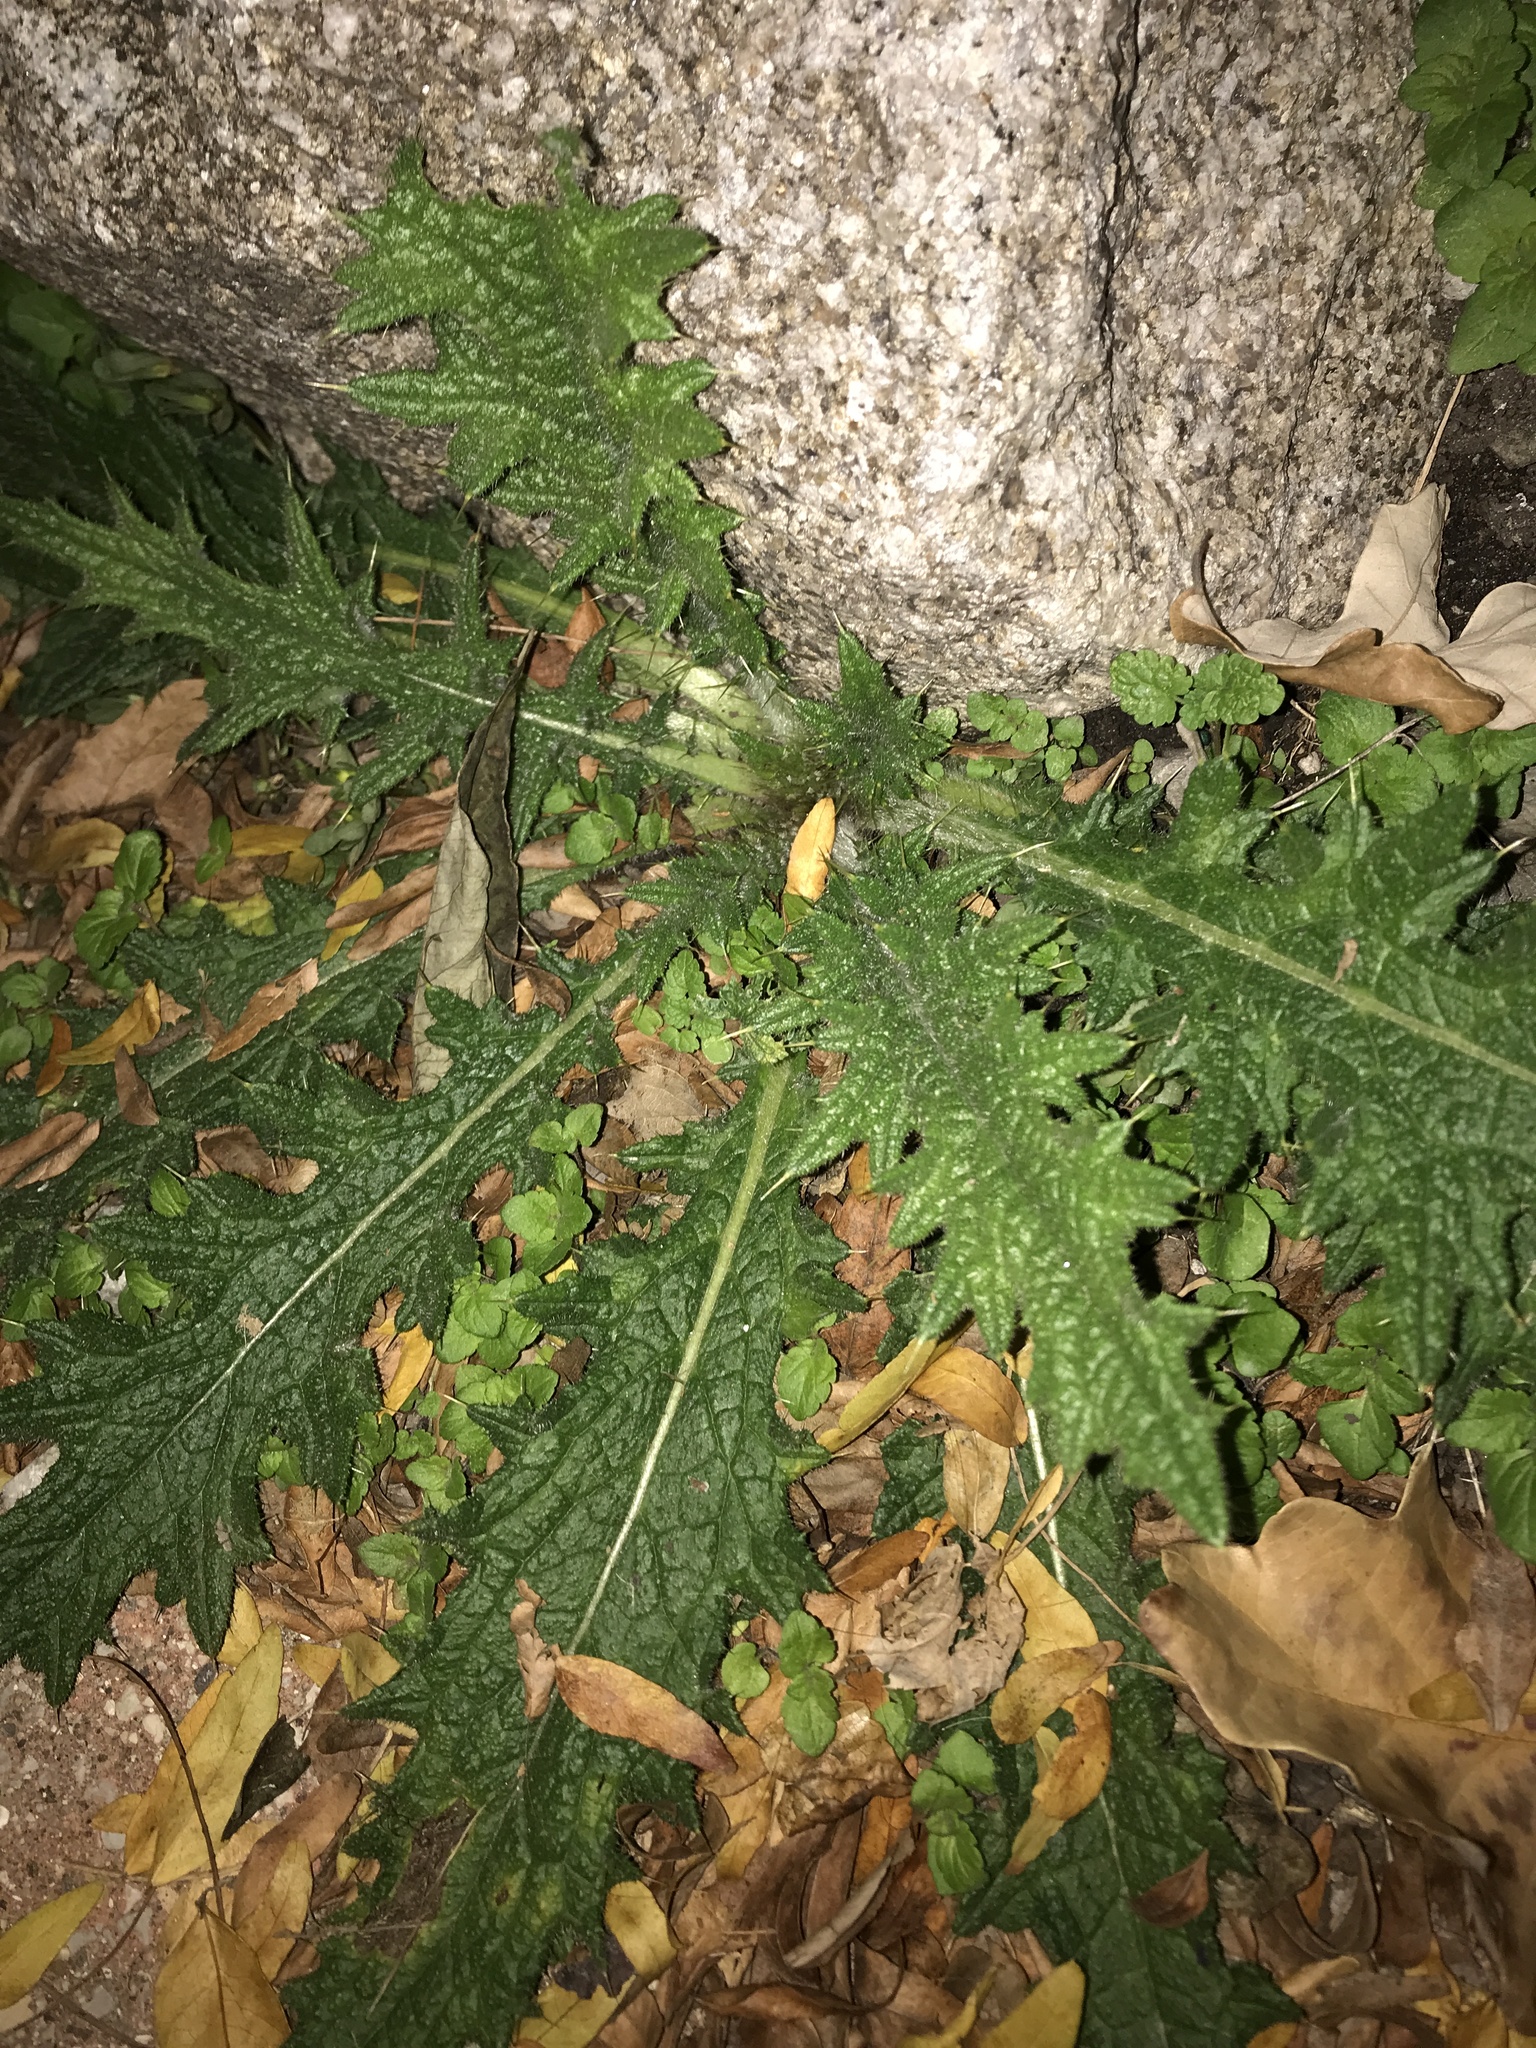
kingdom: Plantae
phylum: Tracheophyta
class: Magnoliopsida
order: Asterales
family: Asteraceae
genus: Cirsium
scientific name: Cirsium vulgare
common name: Bull thistle
